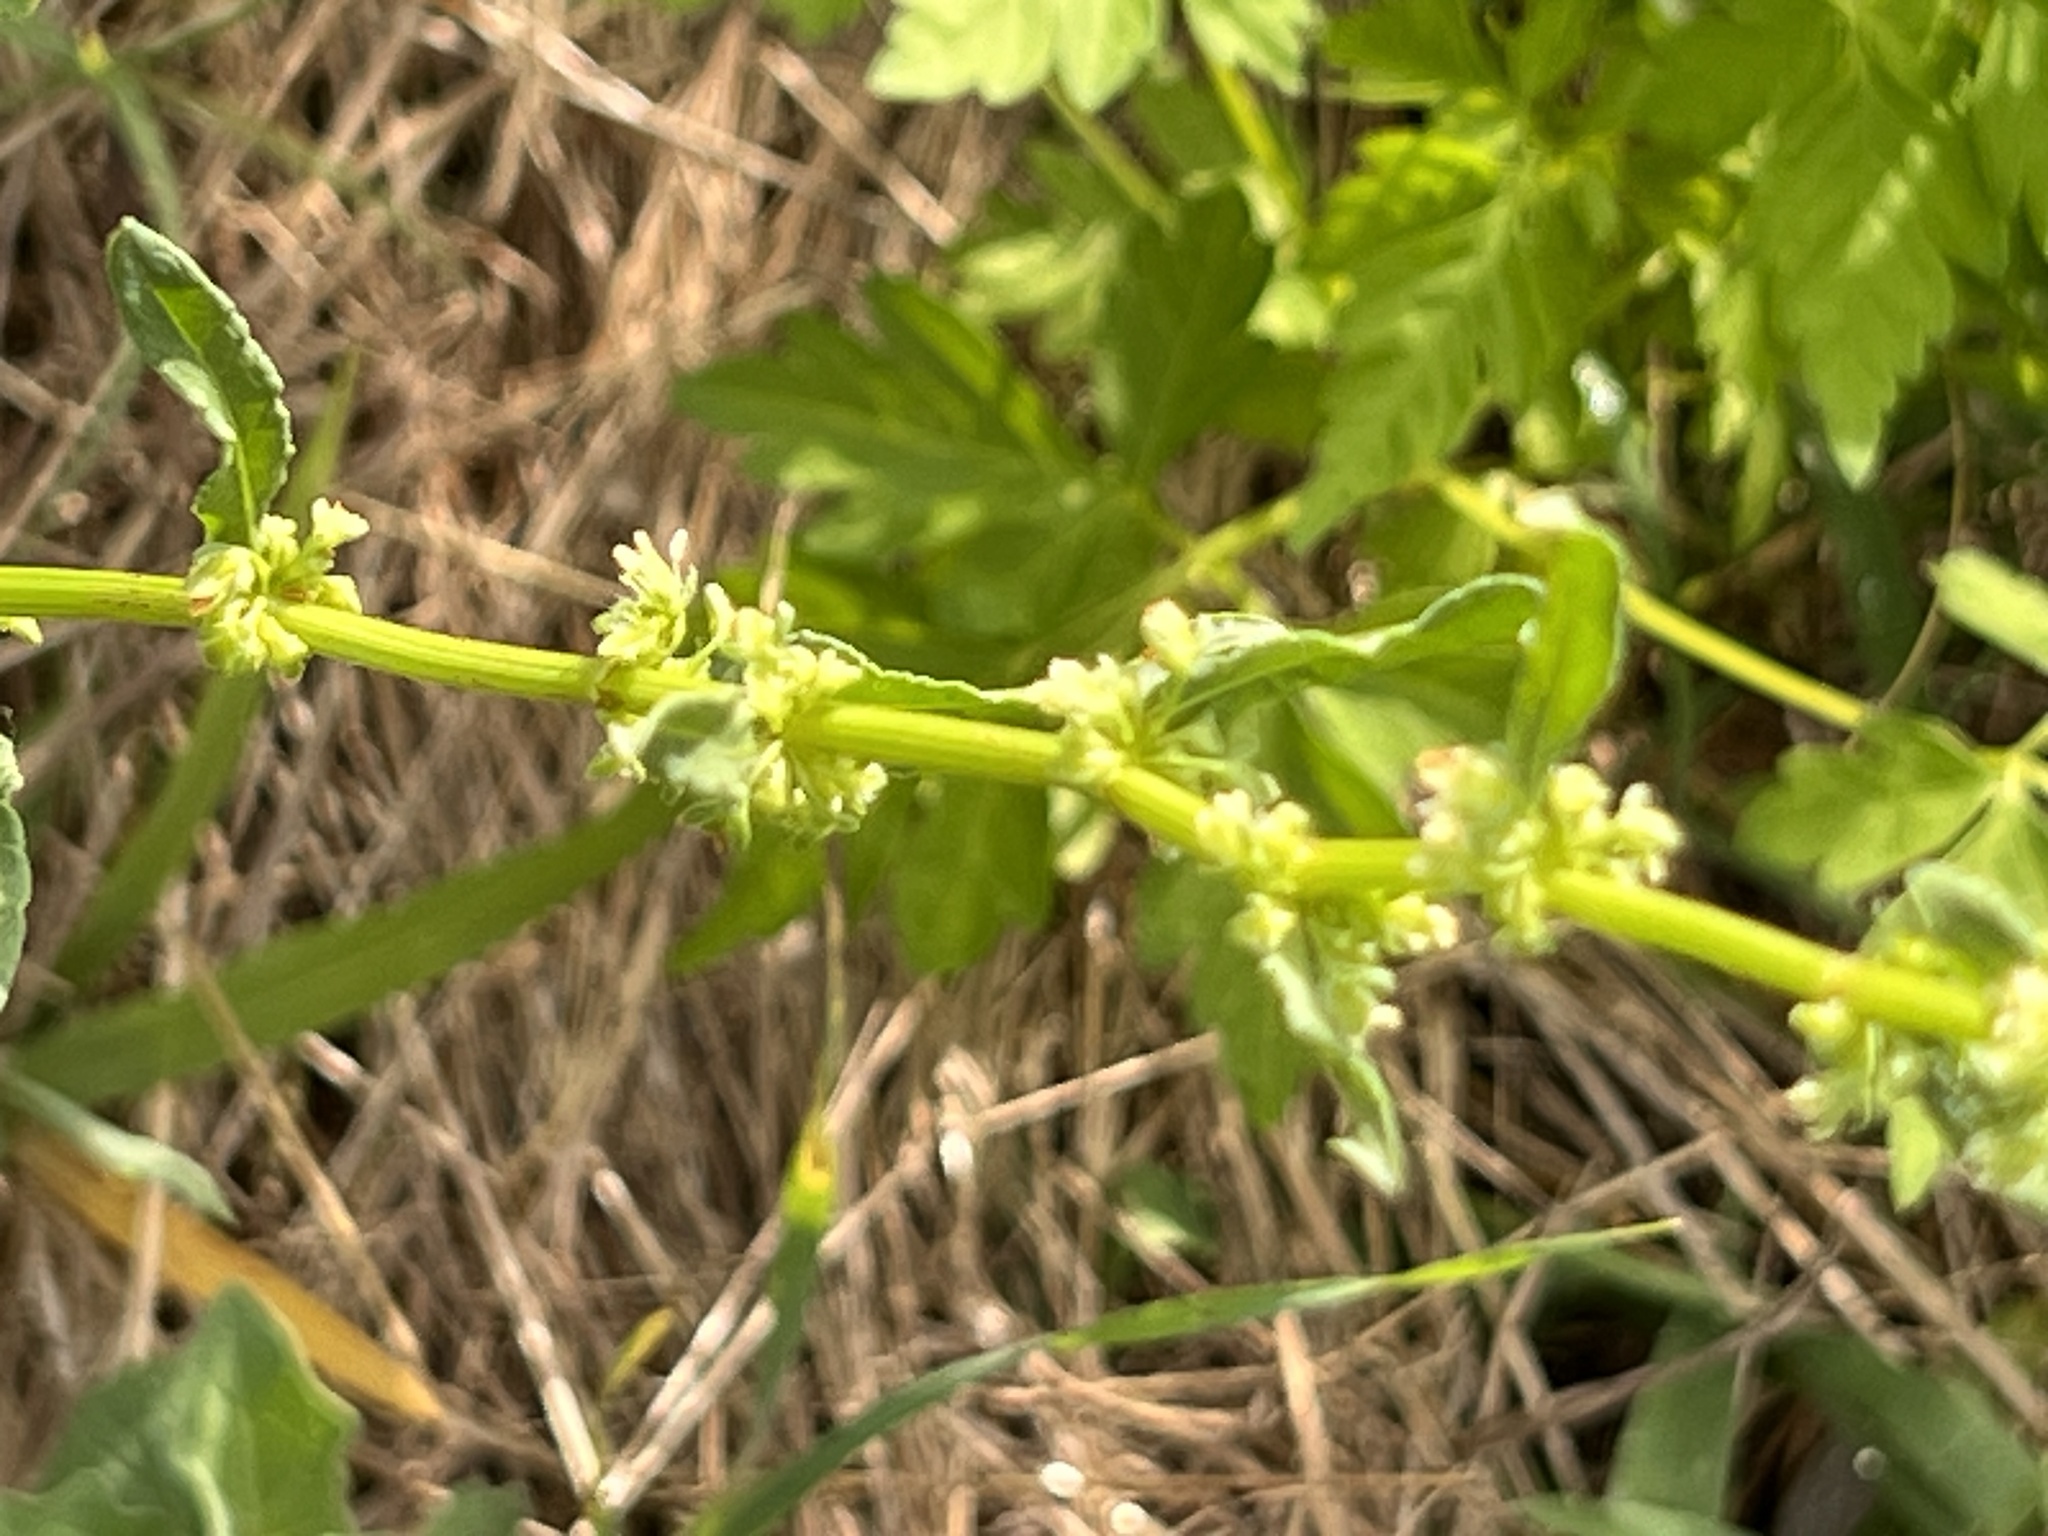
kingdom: Plantae
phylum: Tracheophyta
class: Magnoliopsida
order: Caryophyllales
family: Polygonaceae
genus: Rumex
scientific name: Rumex pulcher
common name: Fiddle dock
